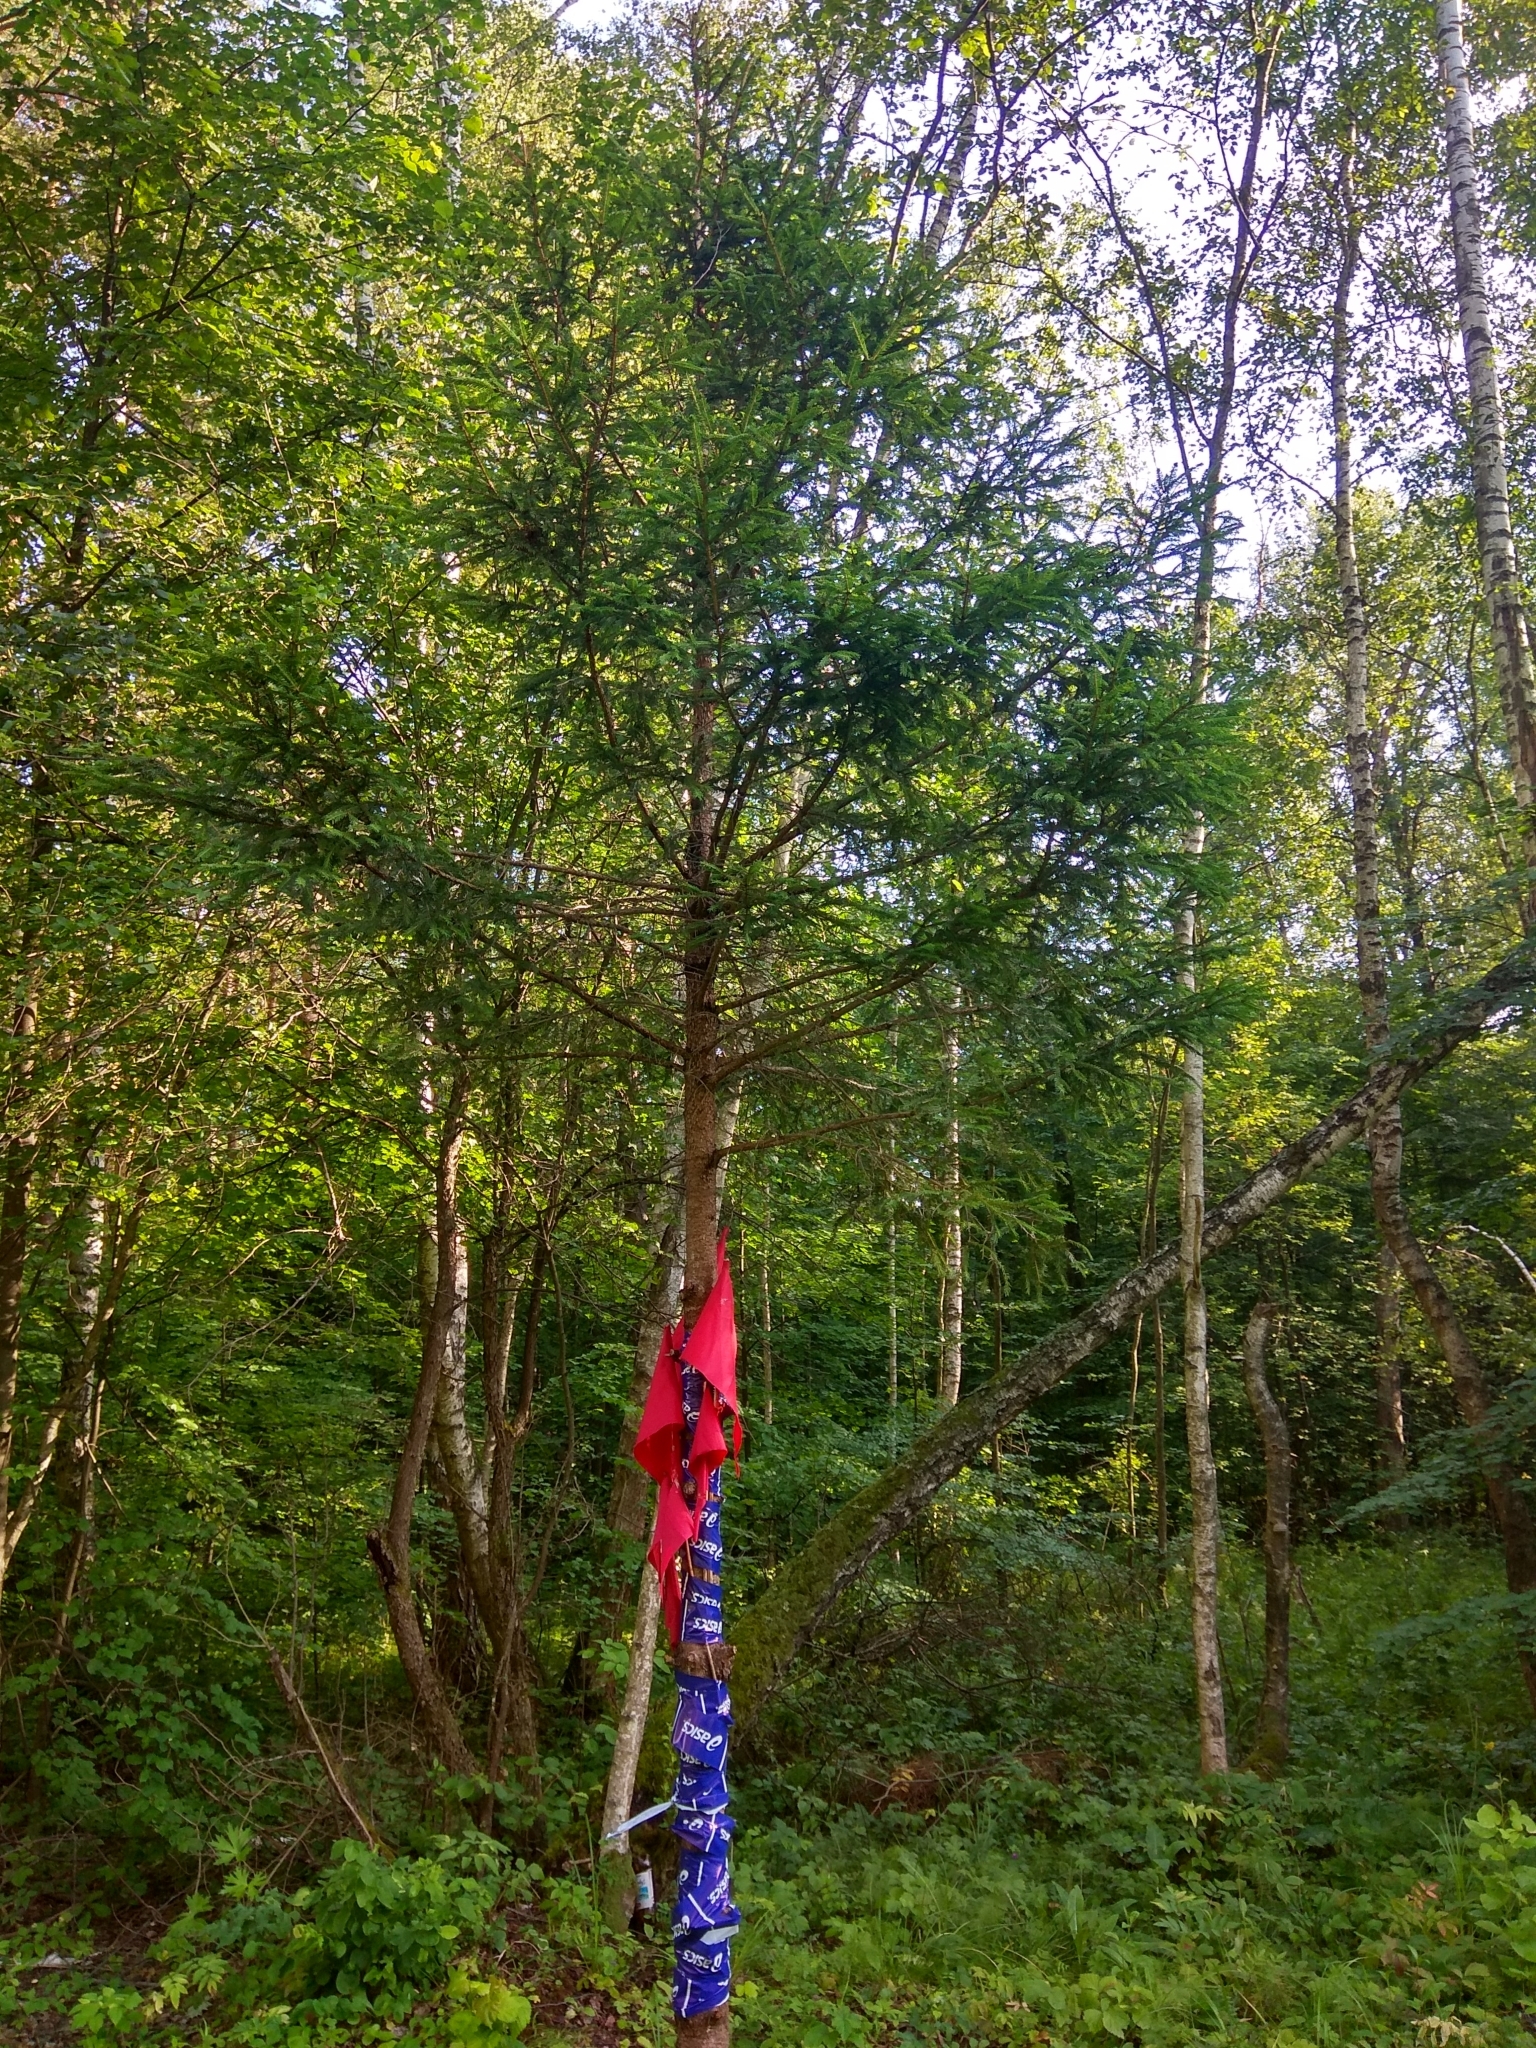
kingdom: Plantae
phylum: Tracheophyta
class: Pinopsida
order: Pinales
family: Pinaceae
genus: Picea
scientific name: Picea abies
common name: Norway spruce
